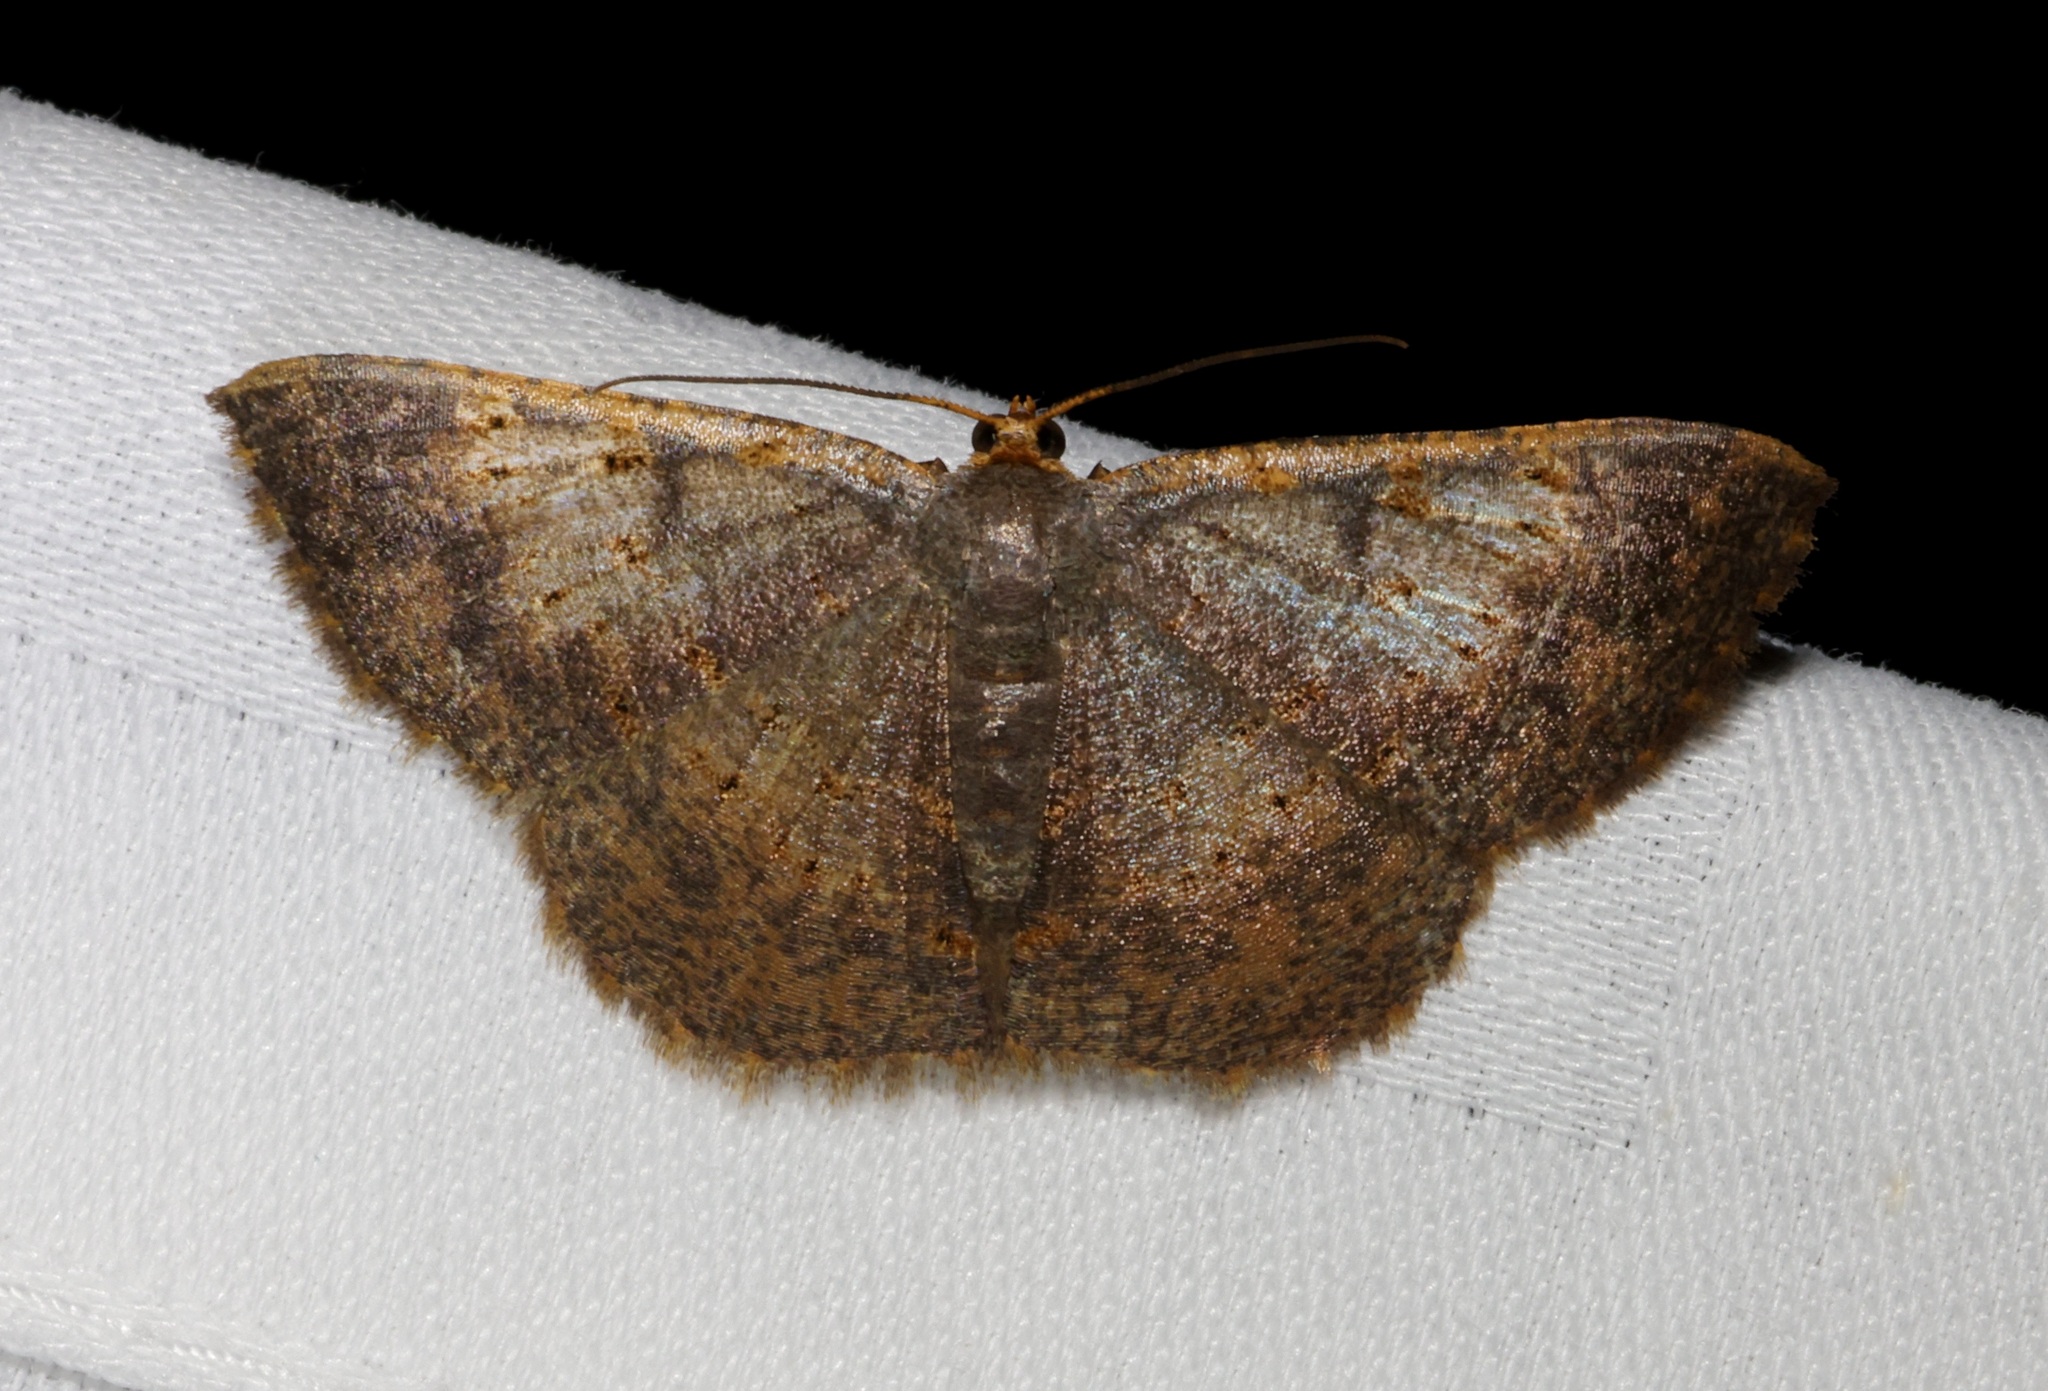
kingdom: Animalia
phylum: Arthropoda
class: Insecta
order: Lepidoptera
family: Geometridae
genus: Peratophyga
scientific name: Peratophyga crista
